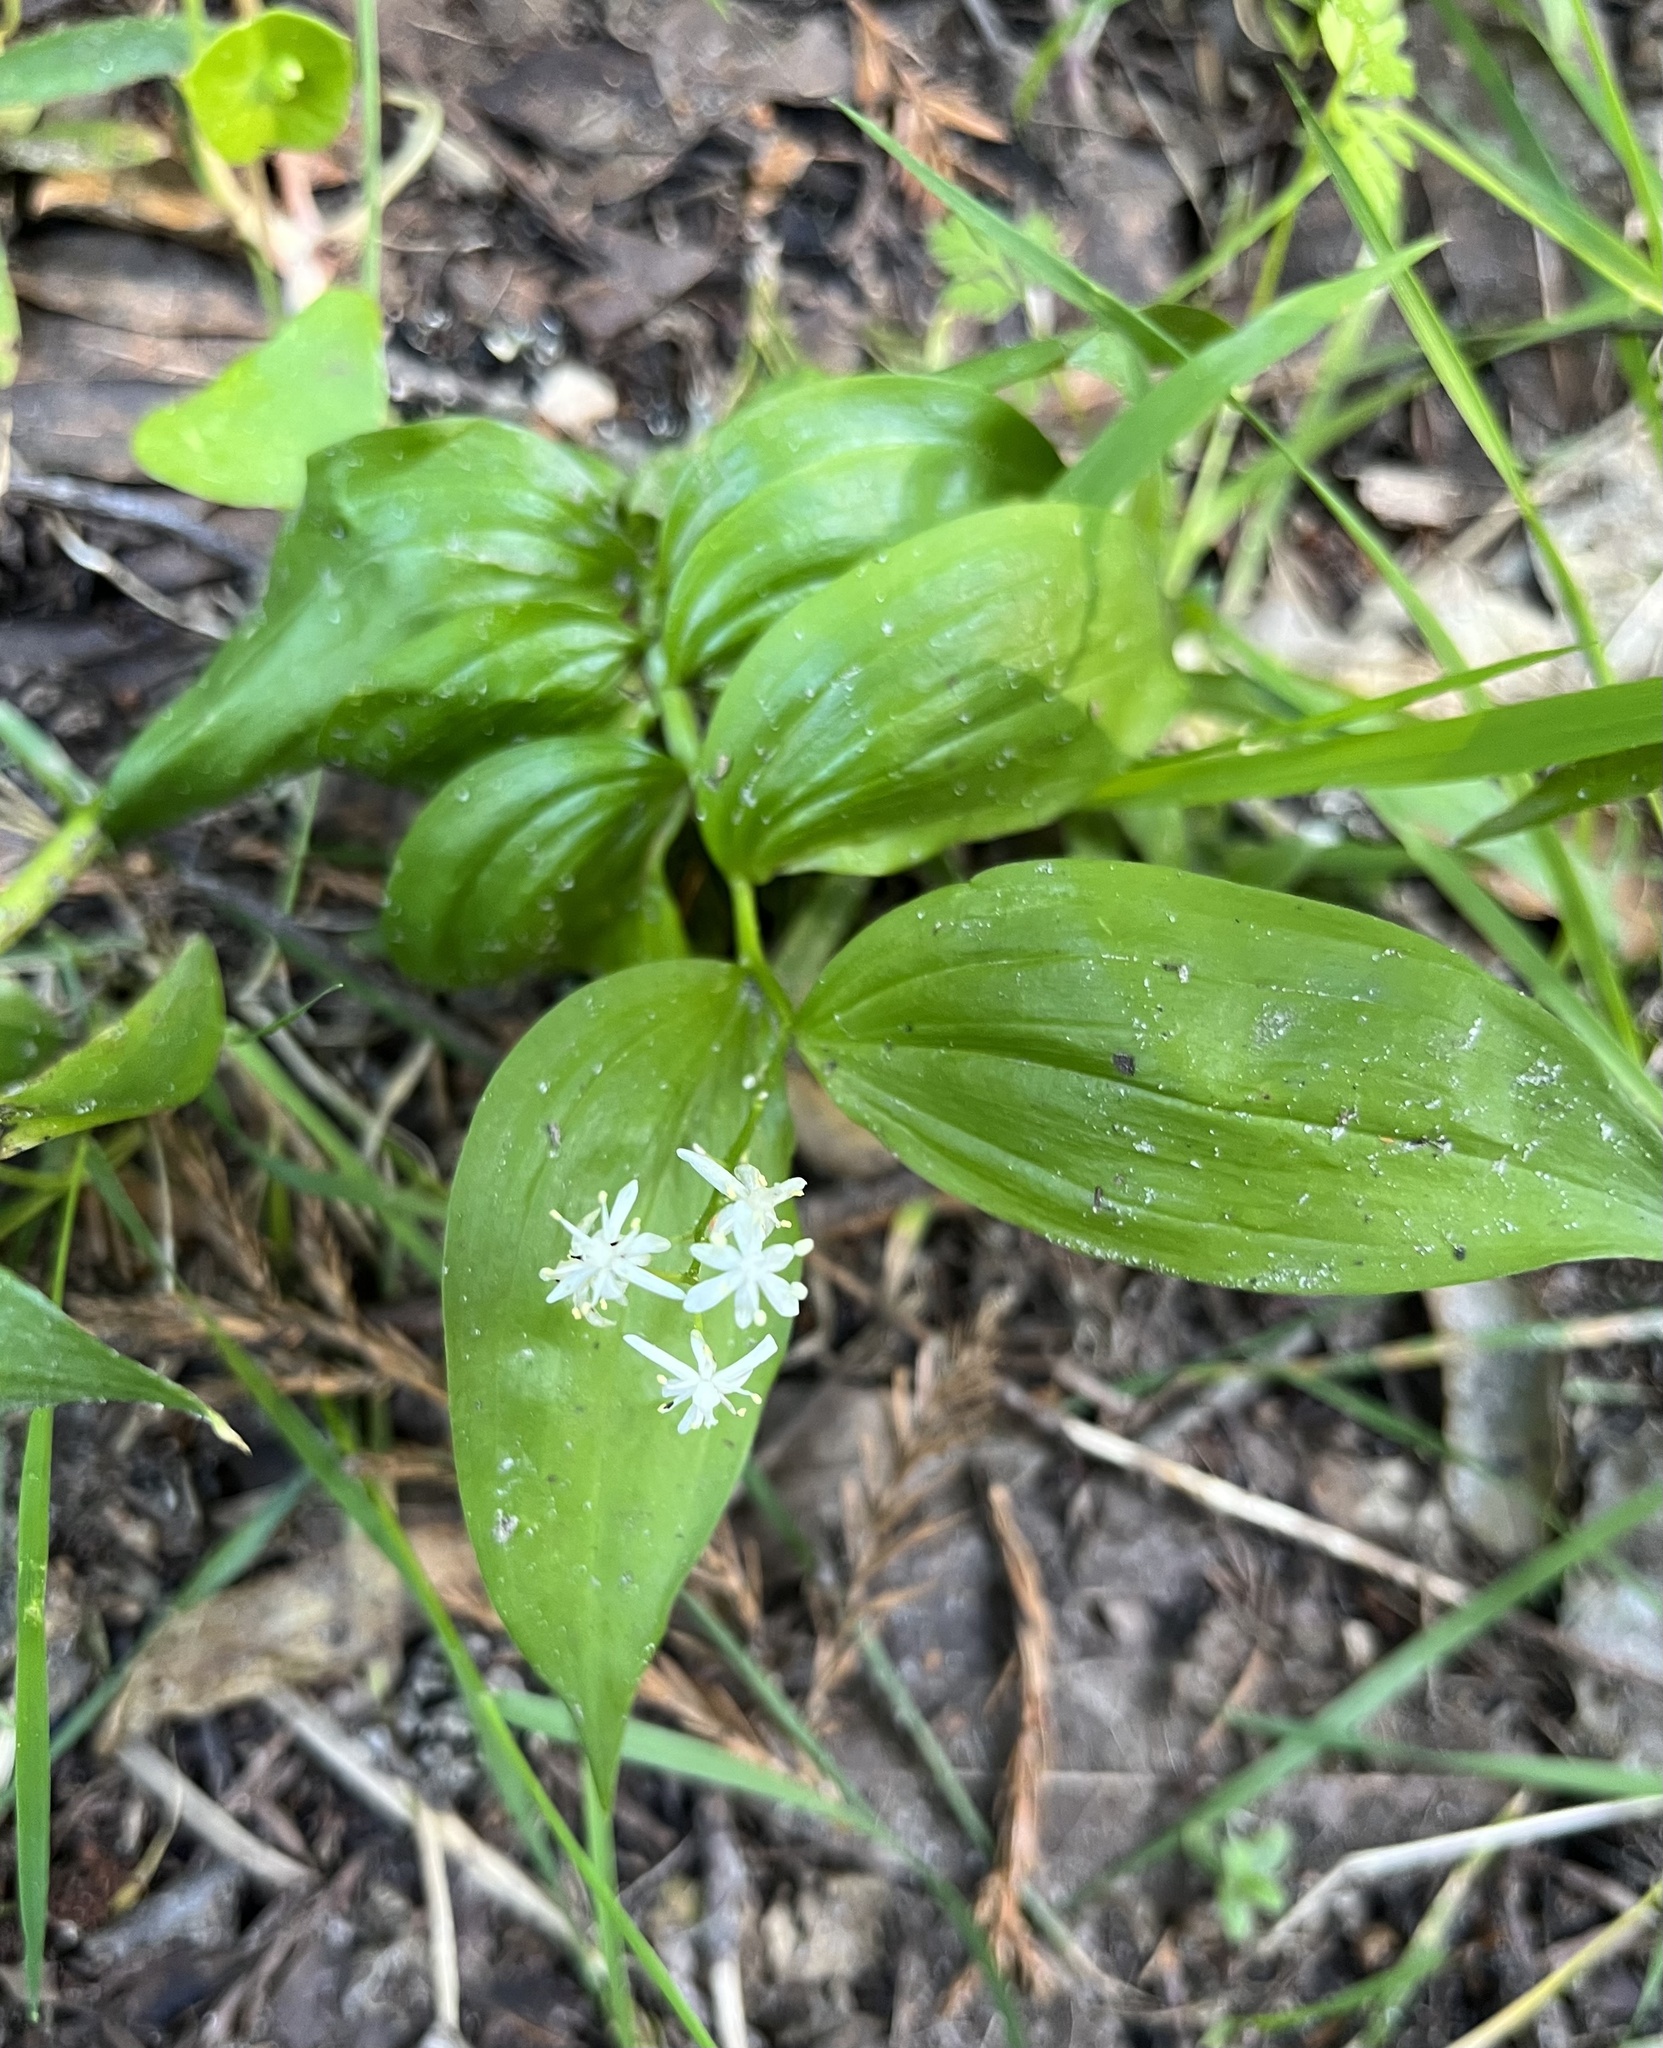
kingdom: Plantae
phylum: Tracheophyta
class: Liliopsida
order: Asparagales
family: Asparagaceae
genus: Maianthemum
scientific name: Maianthemum stellatum
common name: Little false solomon's seal
